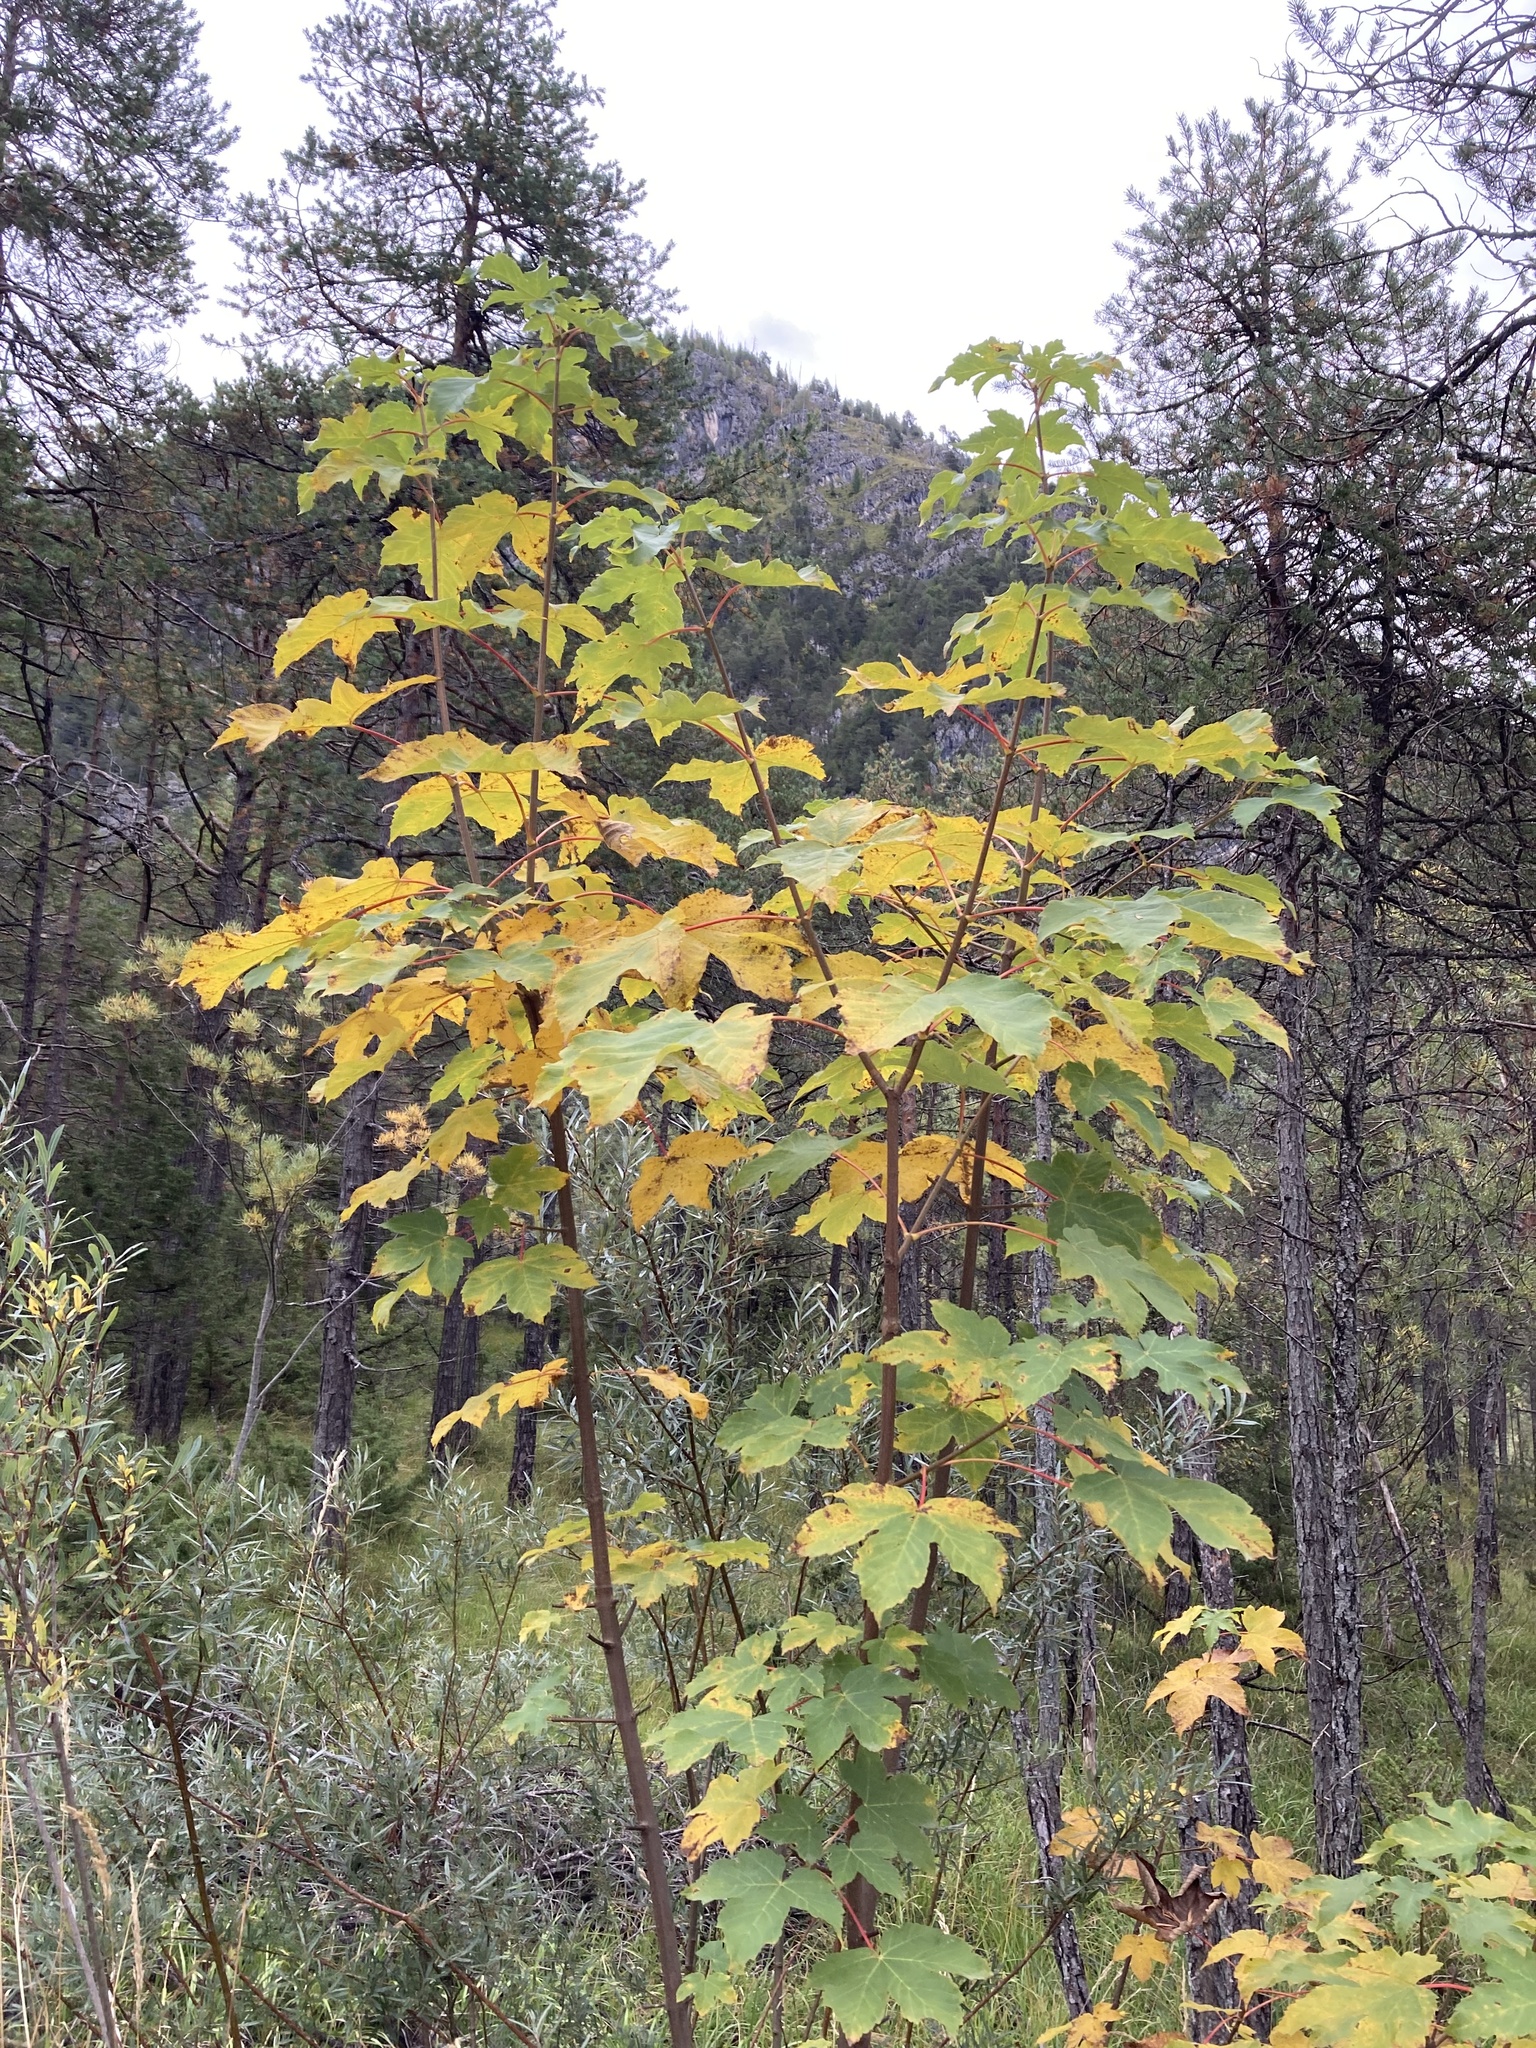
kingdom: Plantae
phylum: Tracheophyta
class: Magnoliopsida
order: Sapindales
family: Sapindaceae
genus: Acer
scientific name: Acer pseudoplatanus
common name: Sycamore
